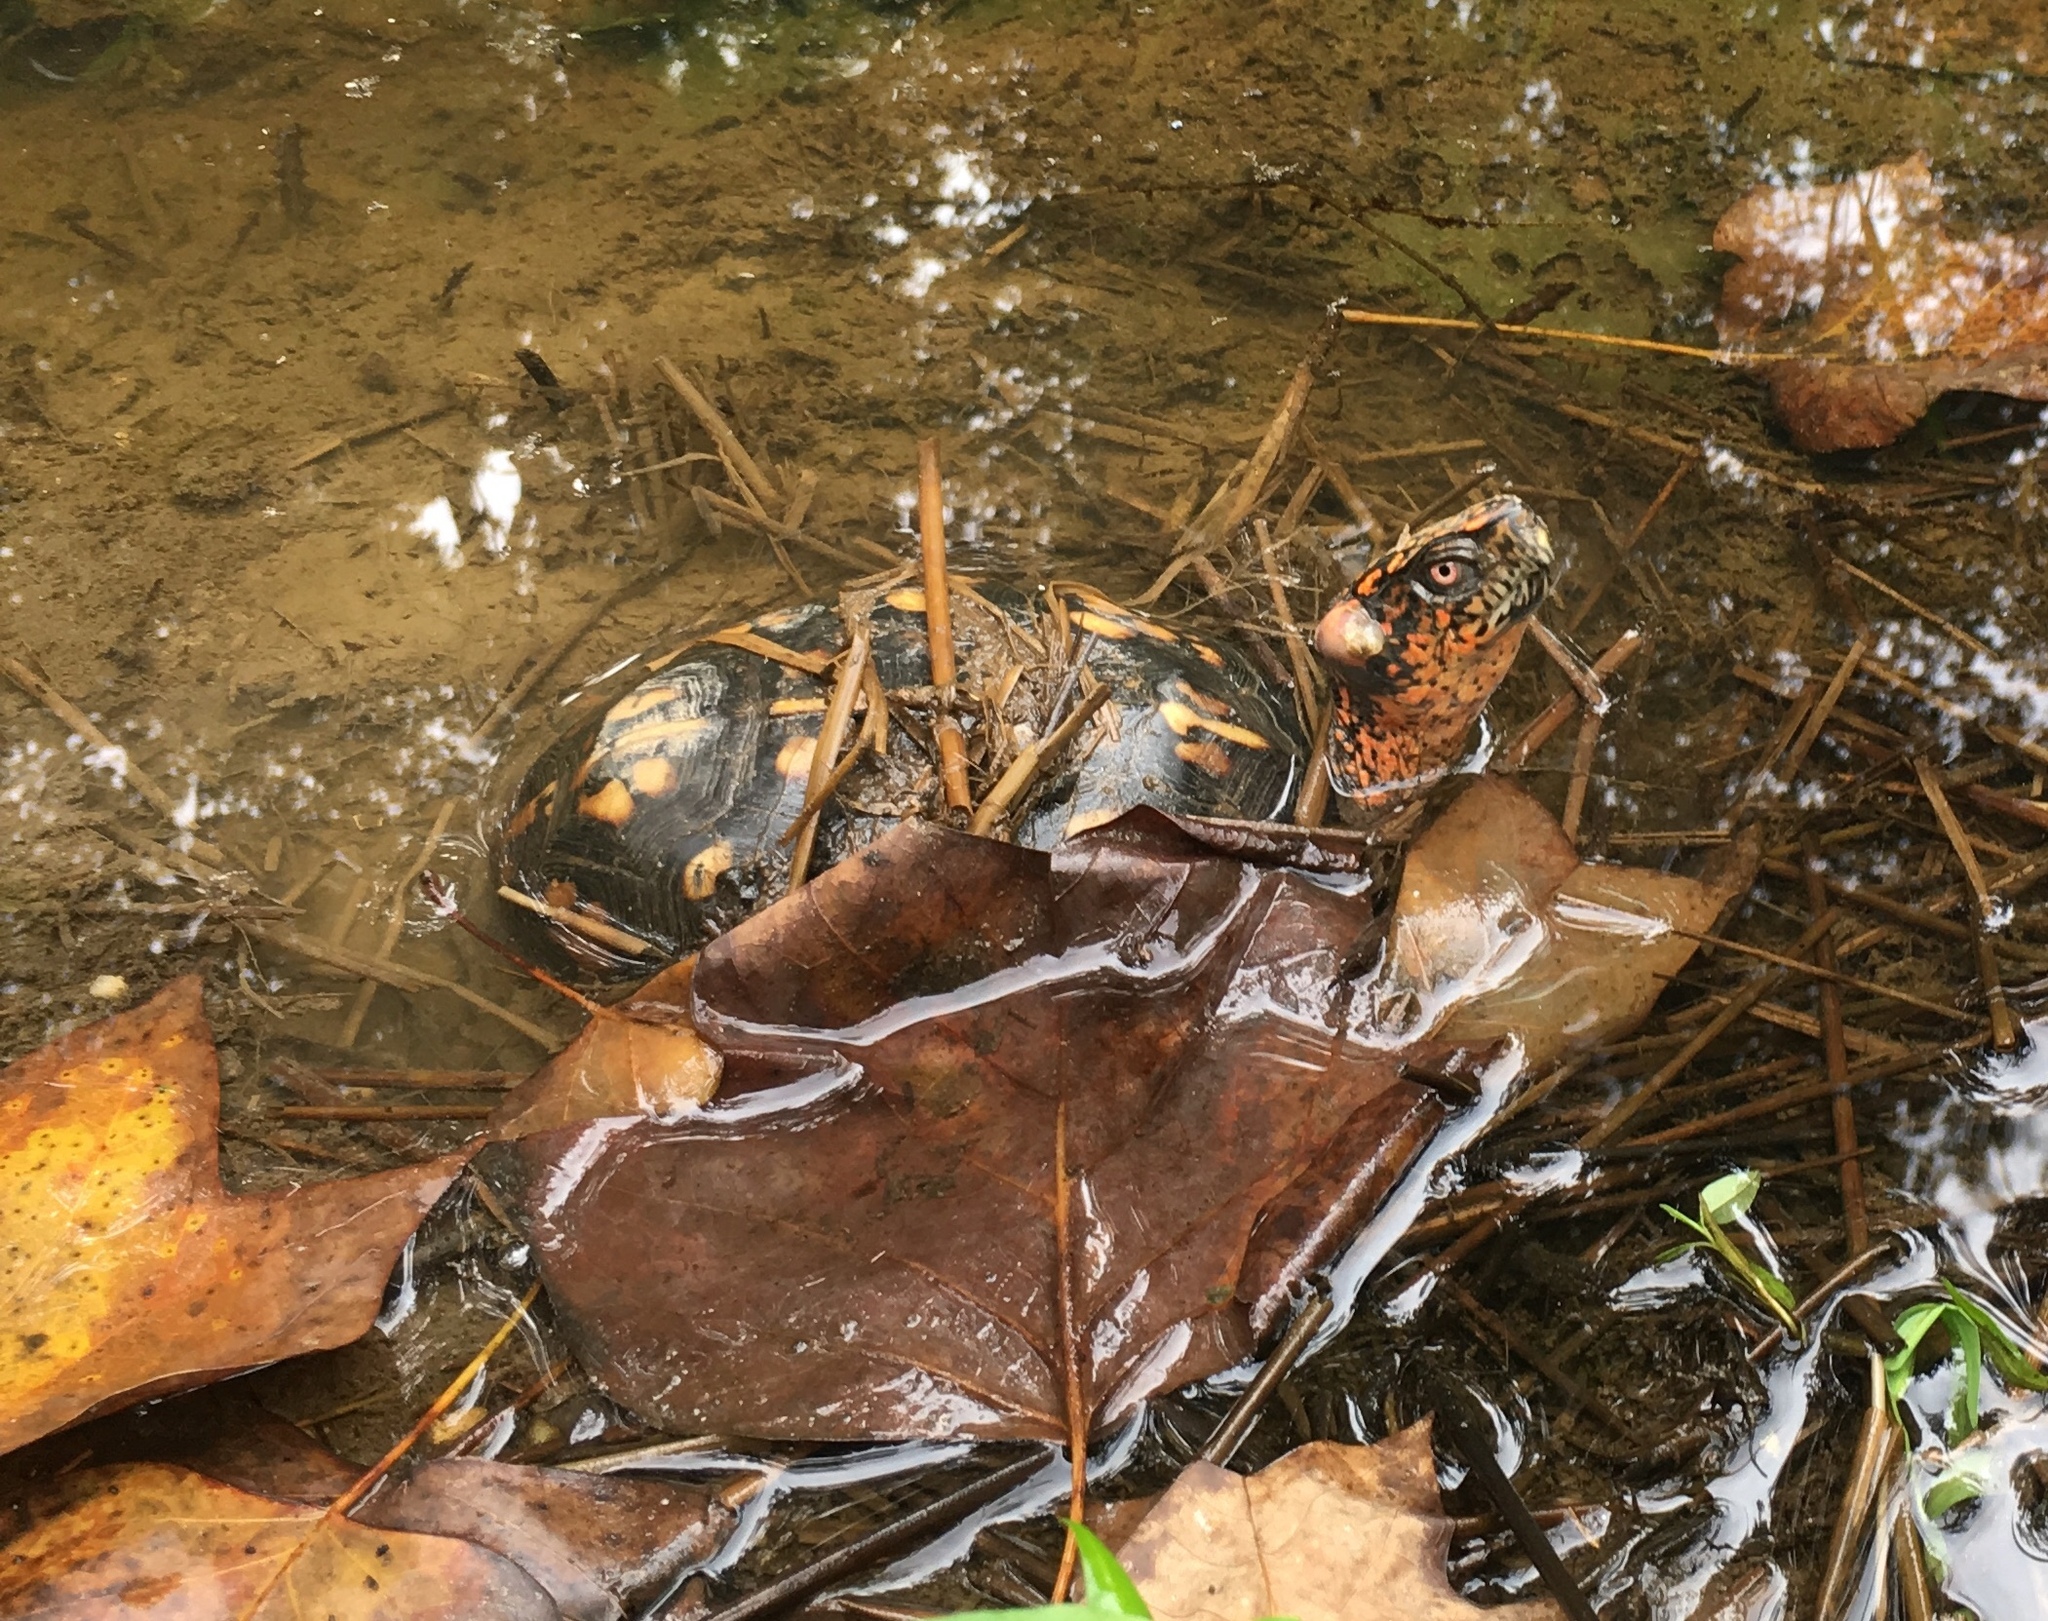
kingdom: Animalia
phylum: Chordata
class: Testudines
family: Emydidae
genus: Terrapene
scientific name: Terrapene carolina
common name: Common box turtle
